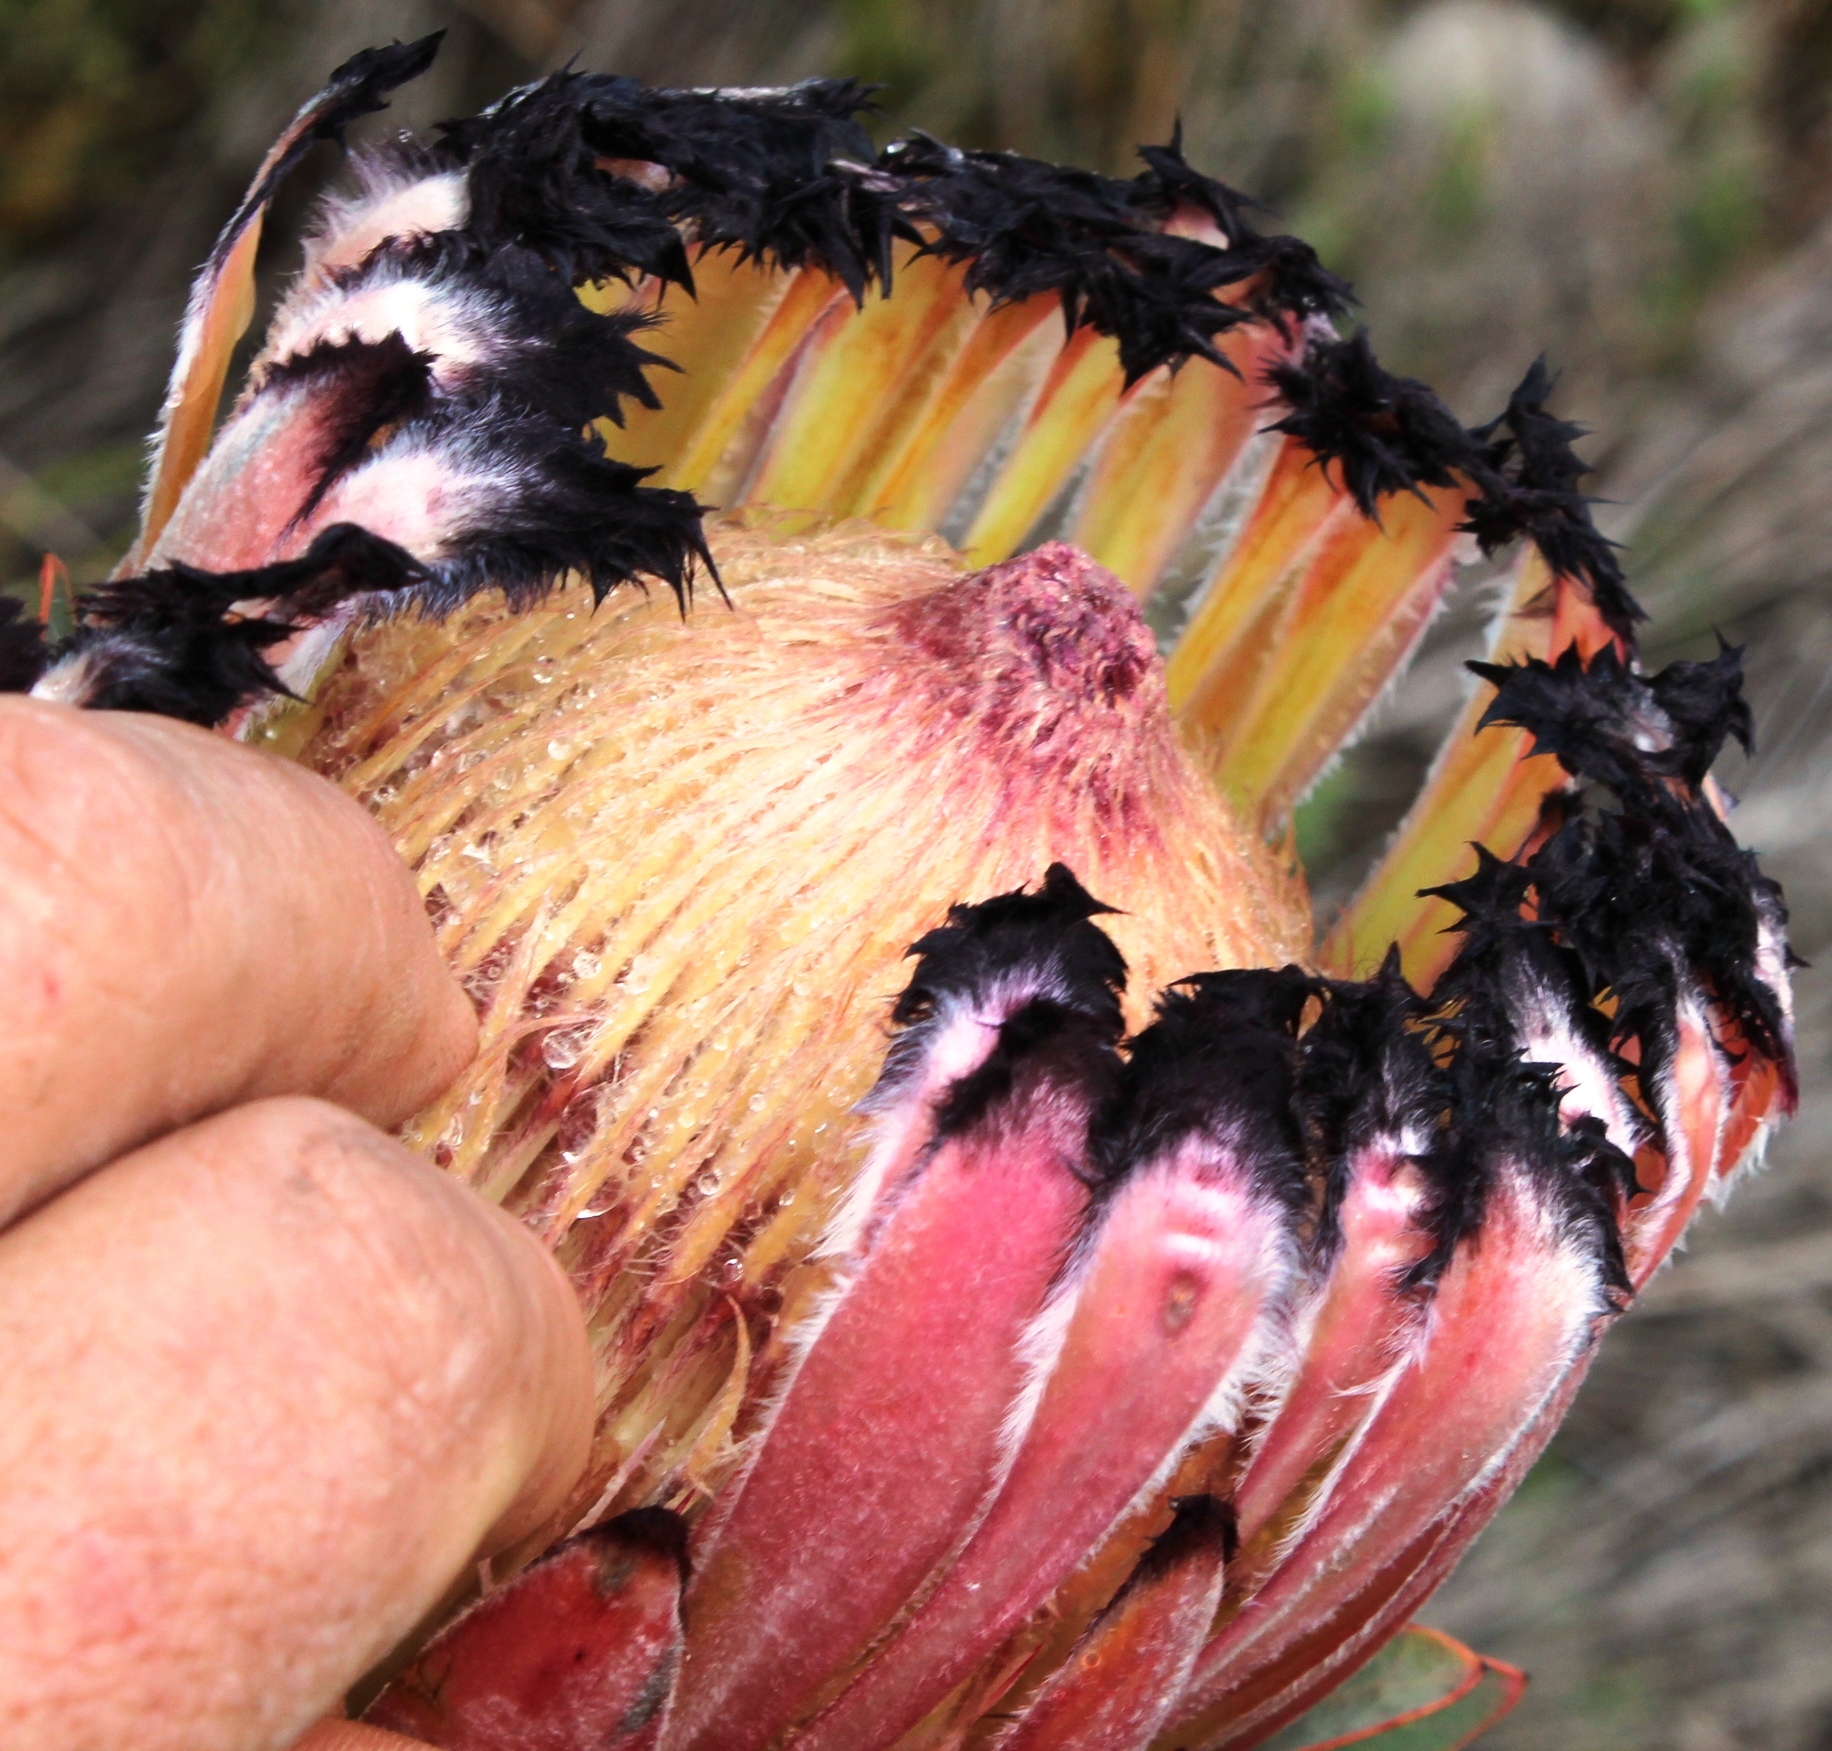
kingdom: Plantae
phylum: Tracheophyta
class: Magnoliopsida
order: Proteales
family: Proteaceae
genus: Protea
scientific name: Protea laurifolia
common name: Grey-leaf sugarbsh
